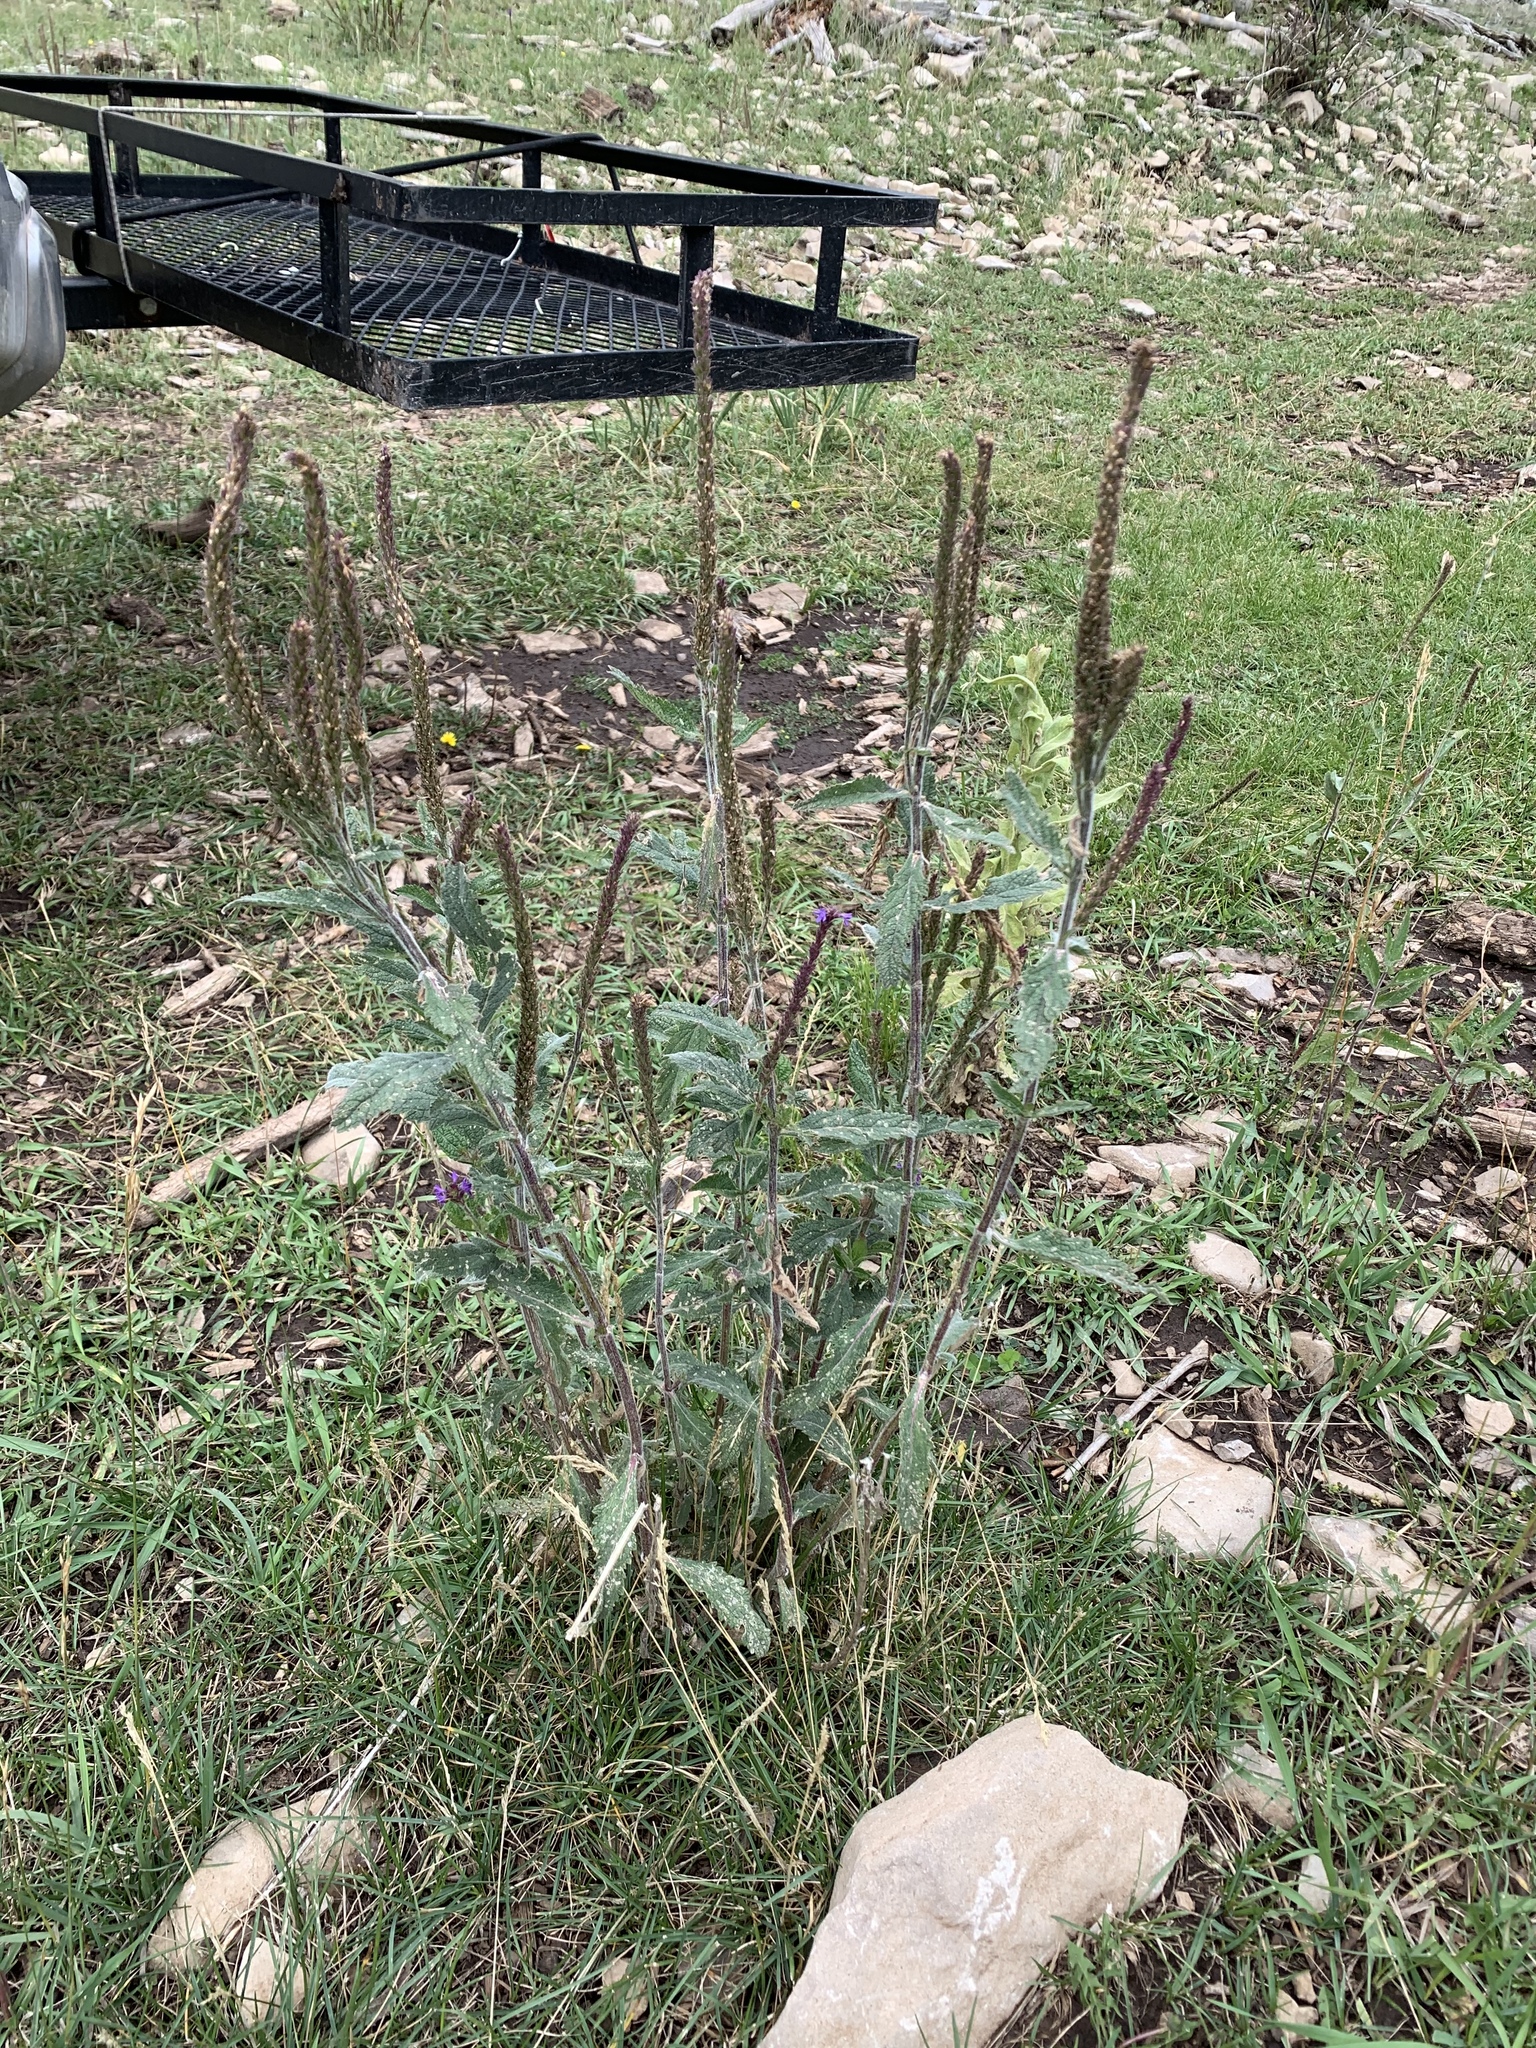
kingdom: Plantae
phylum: Tracheophyta
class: Magnoliopsida
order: Lamiales
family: Verbenaceae
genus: Verbena
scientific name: Verbena macdougalii
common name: New mexico vervain
